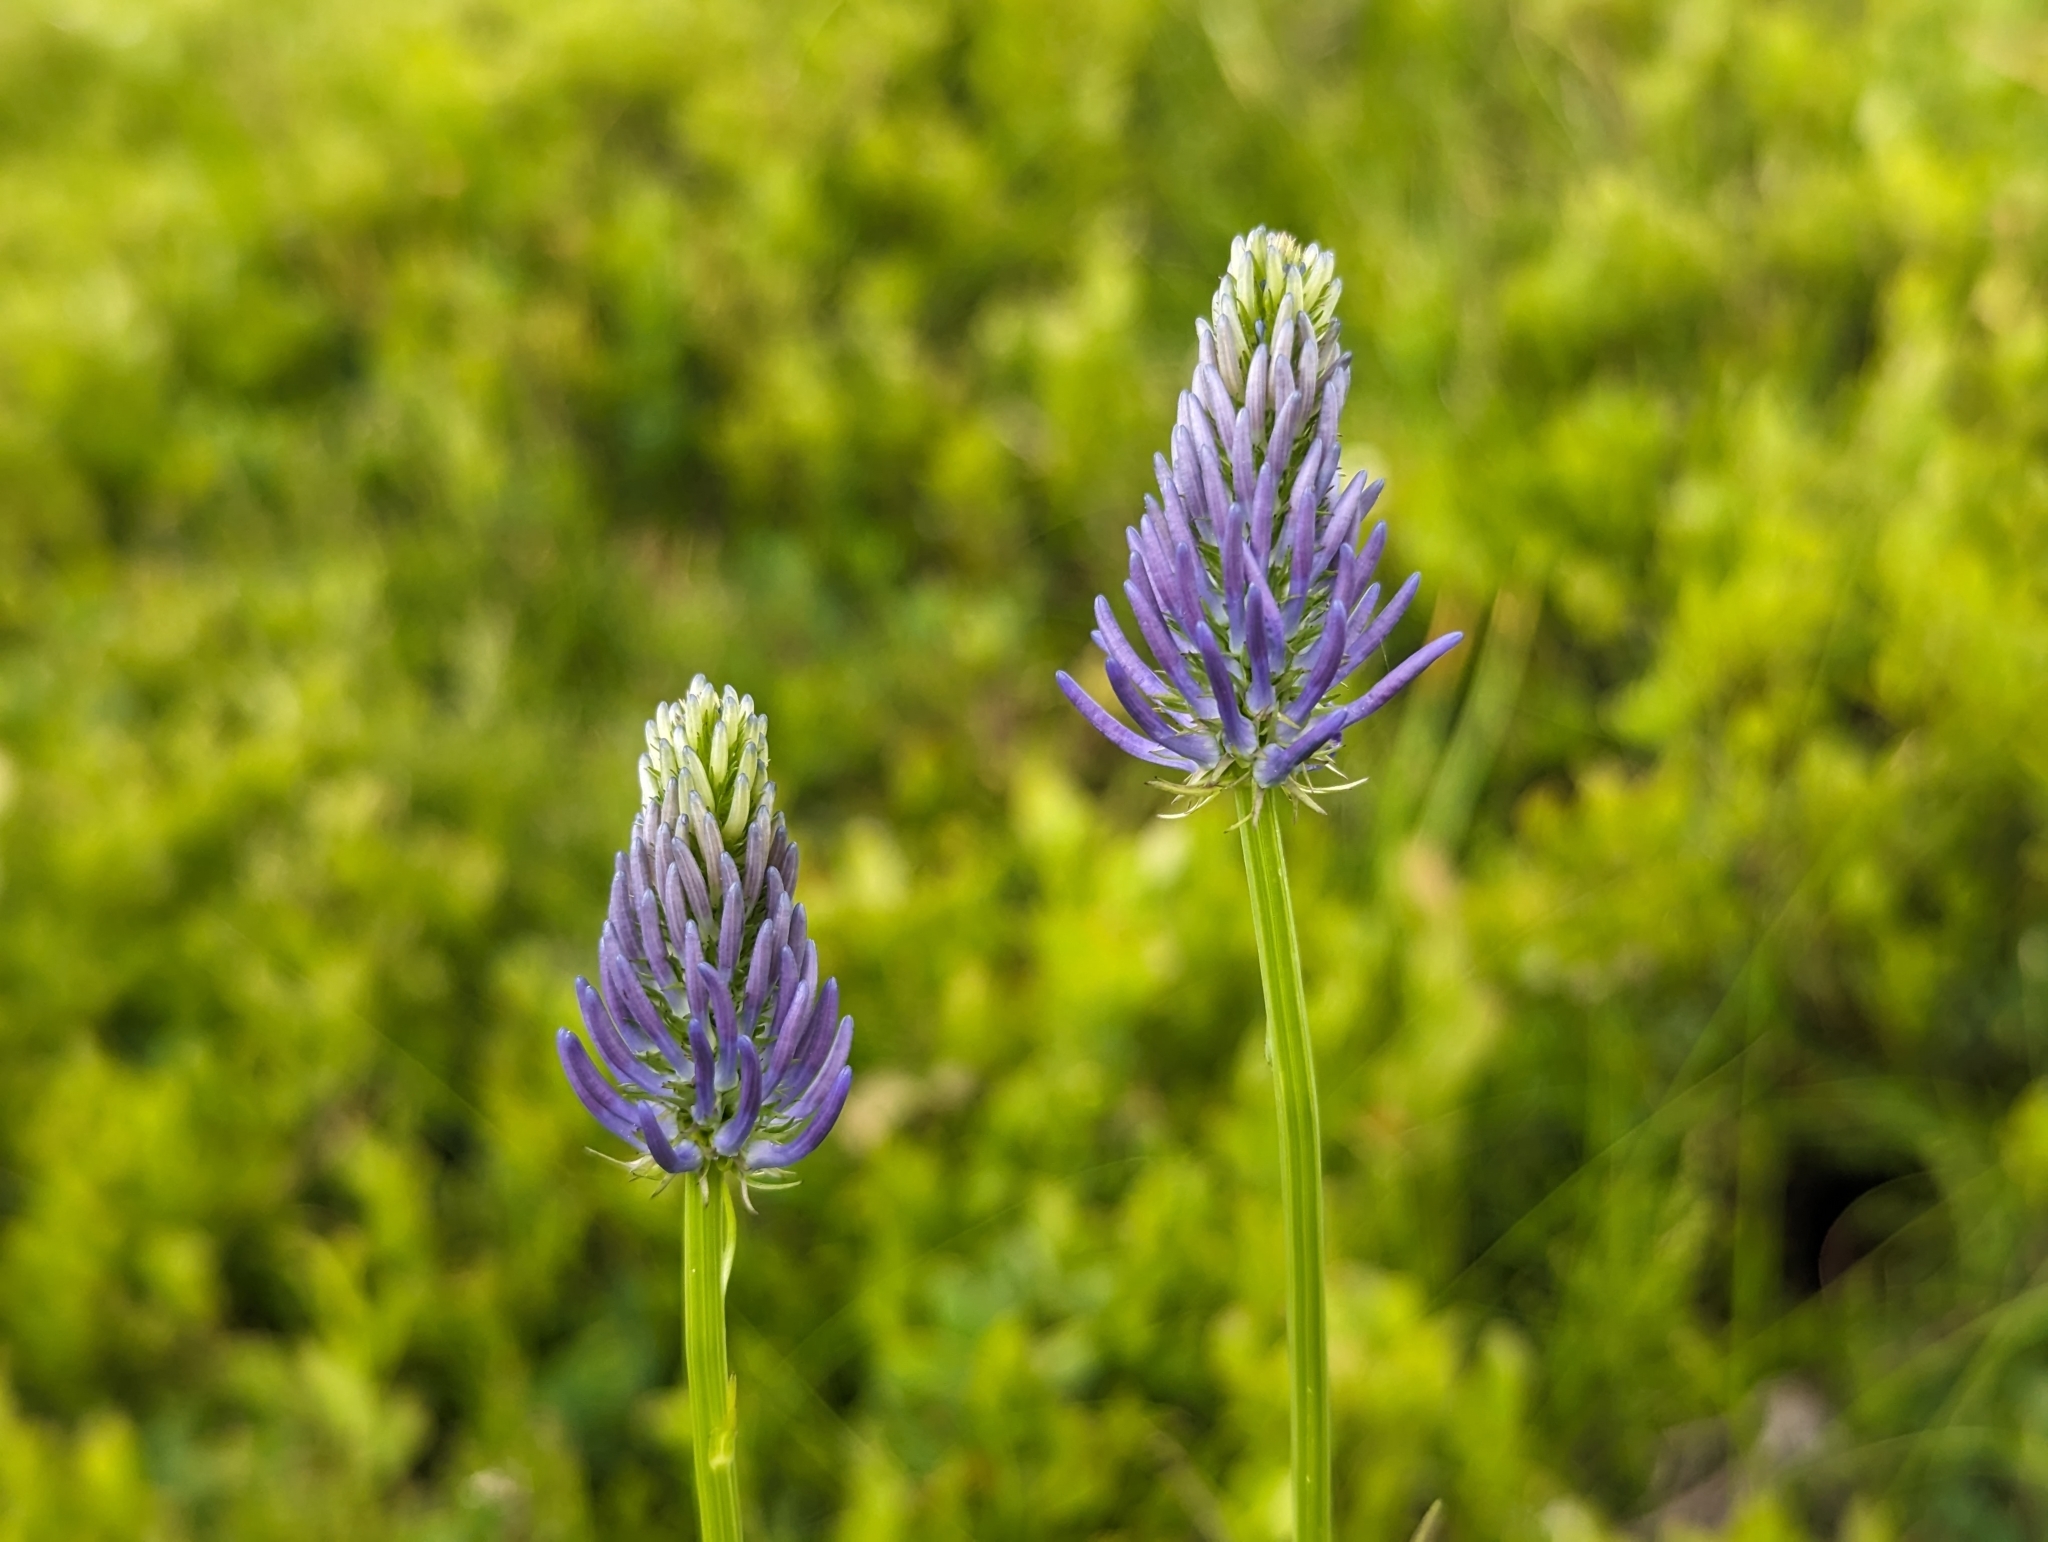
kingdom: Plantae
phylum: Tracheophyta
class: Magnoliopsida
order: Asterales
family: Campanulaceae
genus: Phyteuma
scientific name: Phyteuma persicifolium
